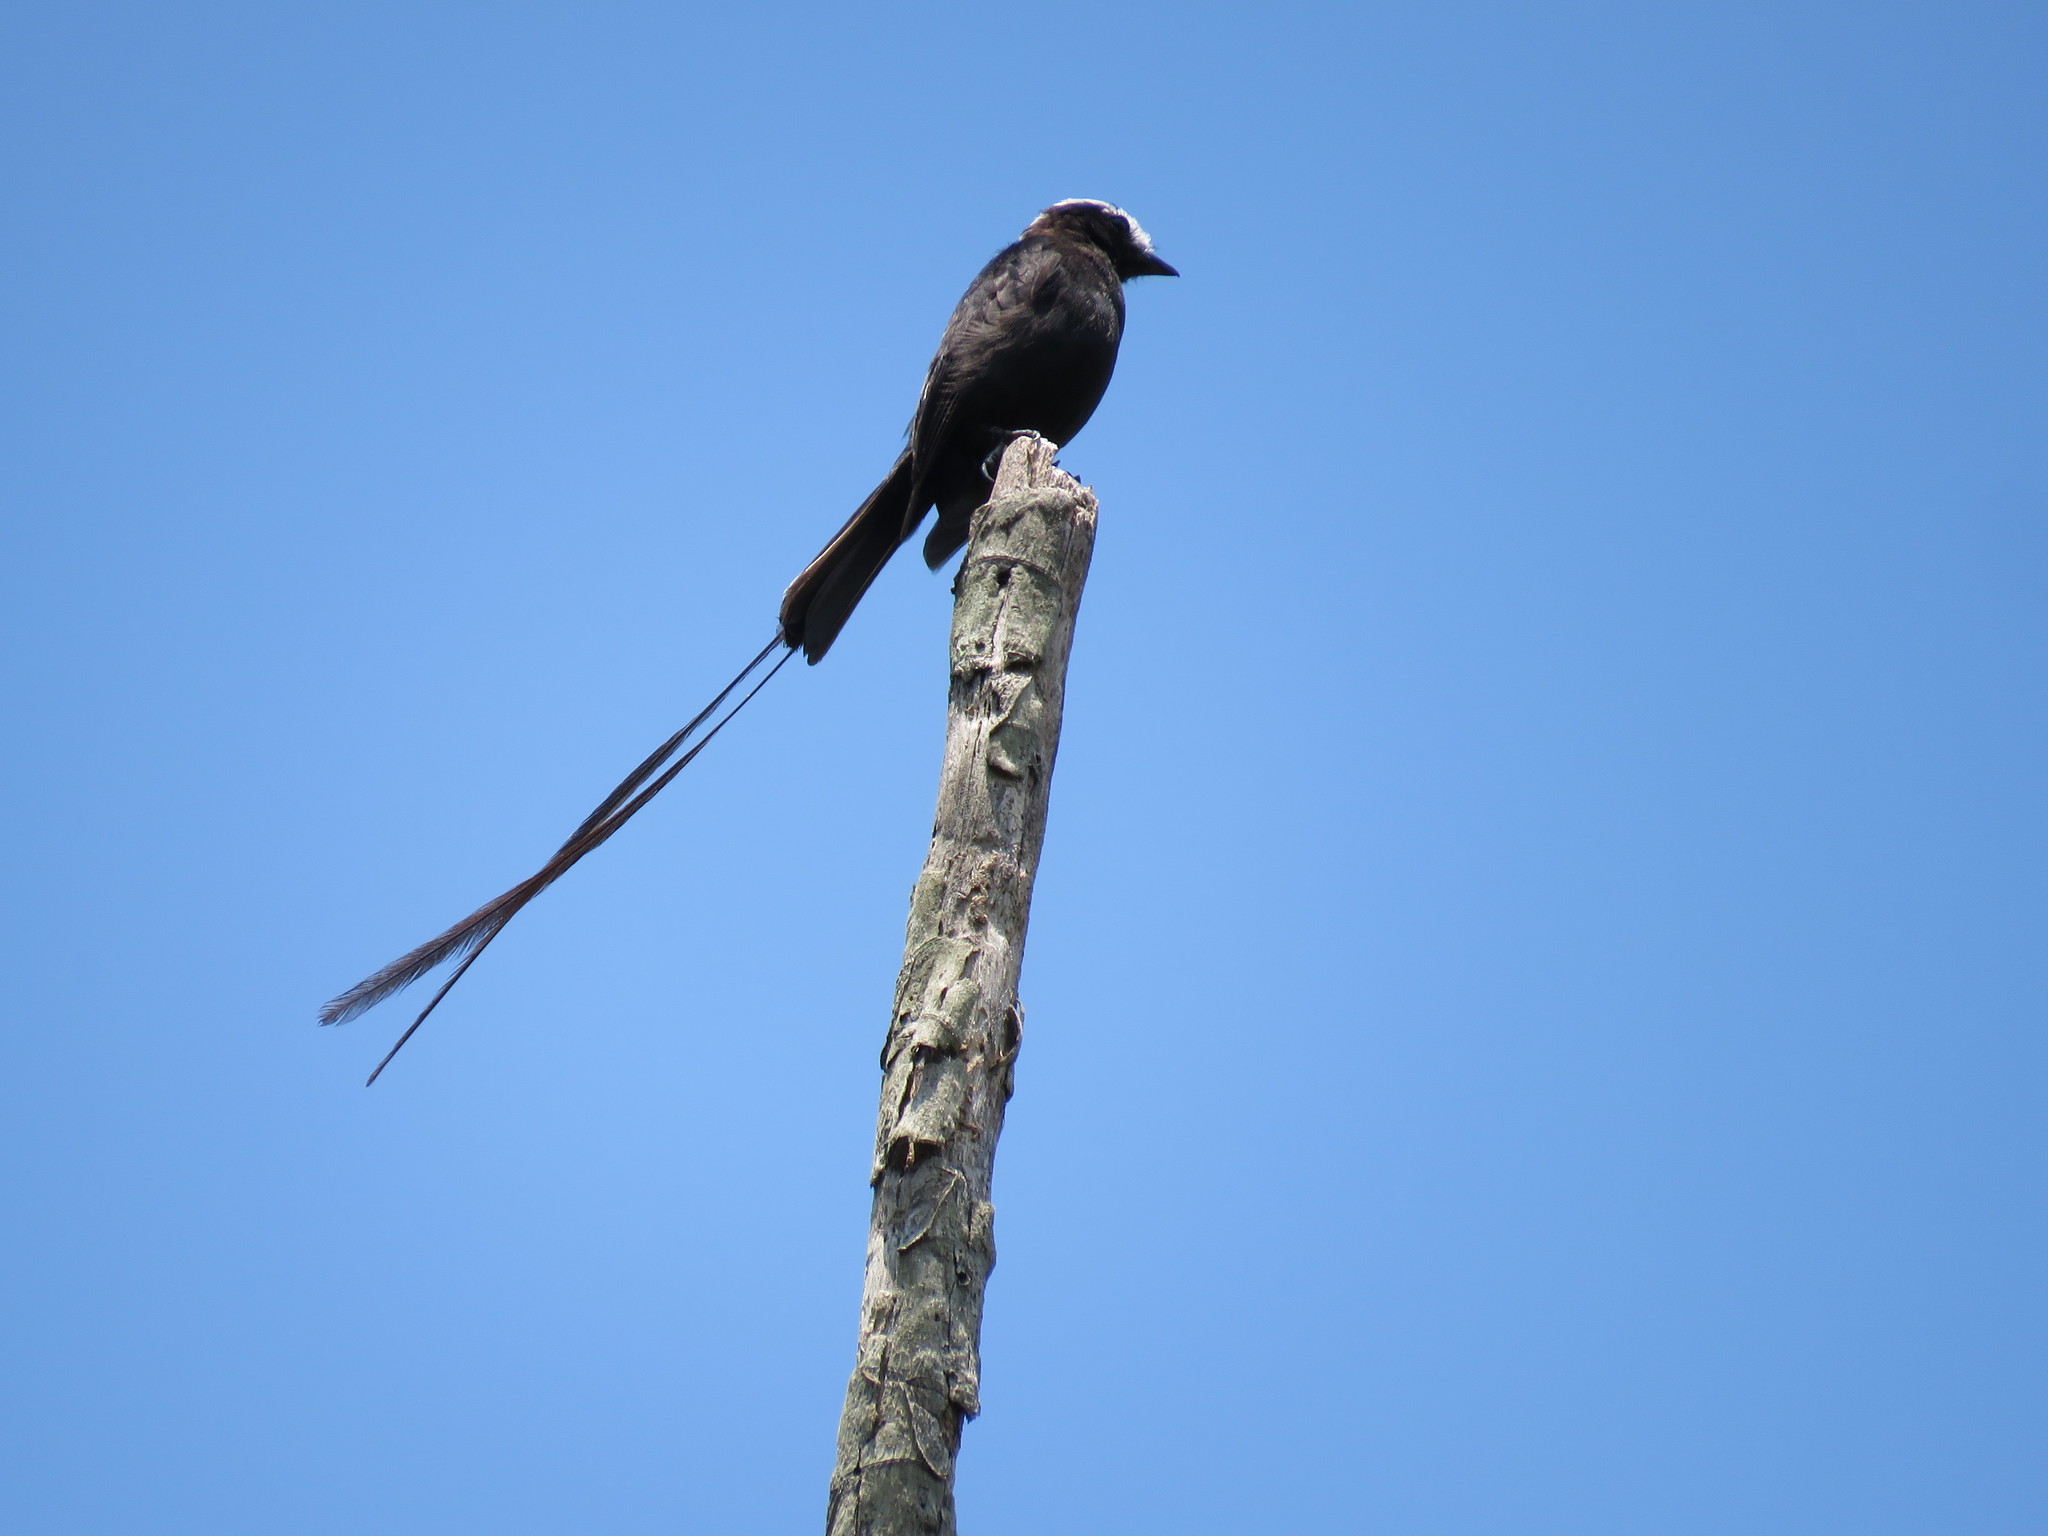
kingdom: Animalia
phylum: Chordata
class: Aves
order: Passeriformes
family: Tyrannidae
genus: Colonia
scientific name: Colonia colonus
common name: Long-tailed tyrant
